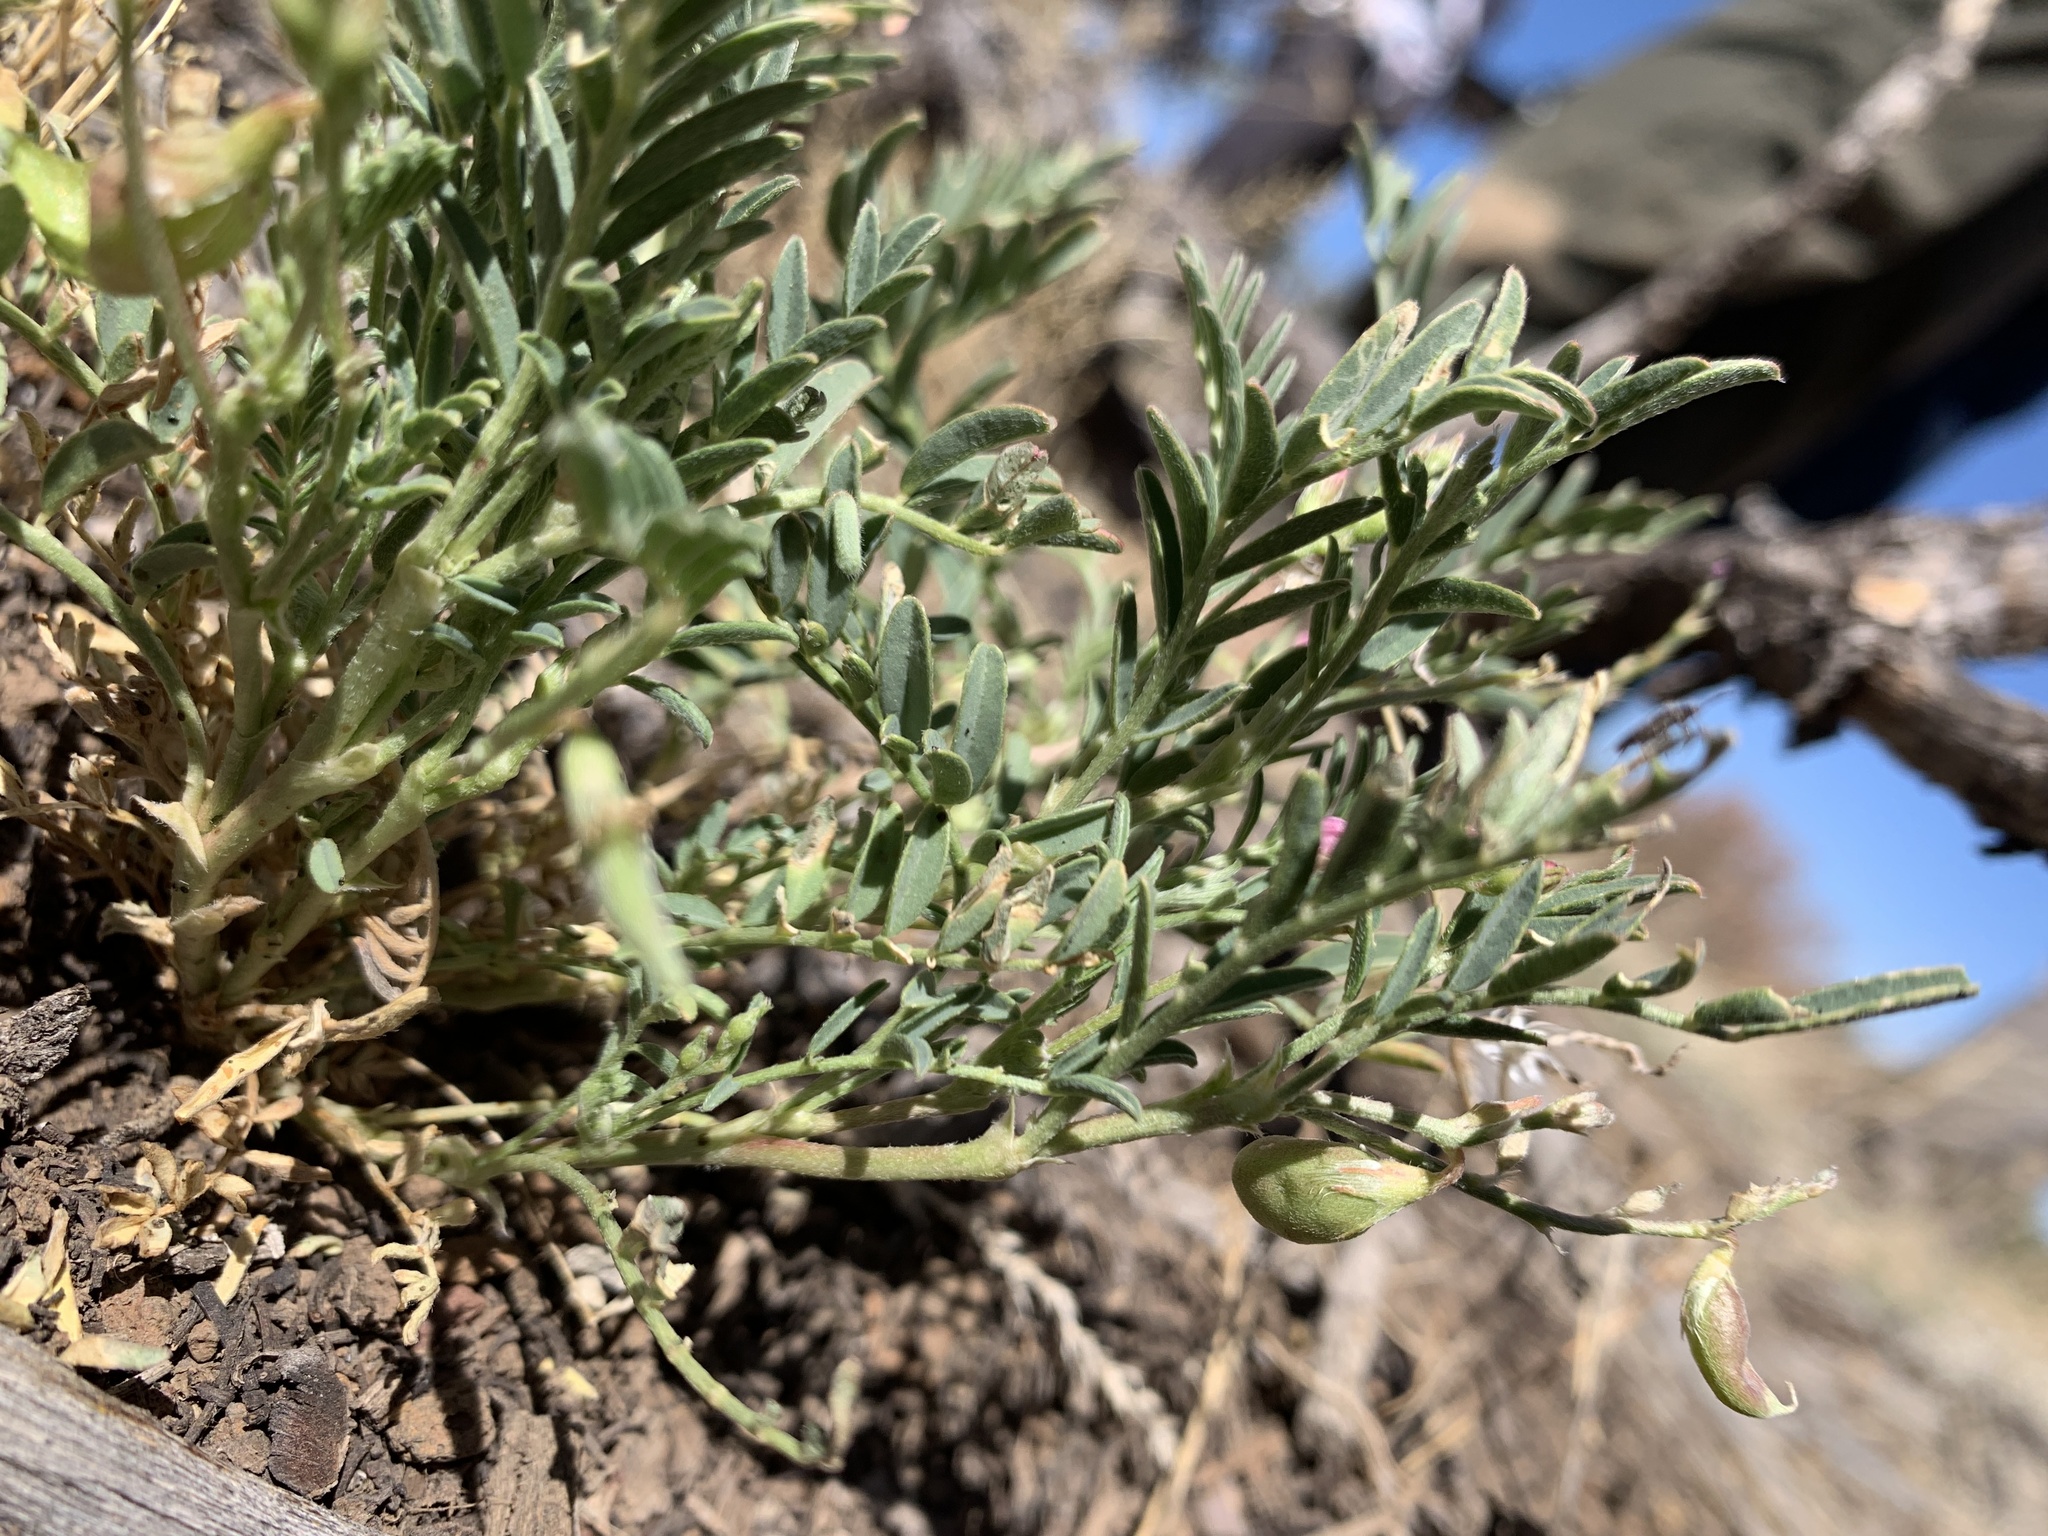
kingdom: Plantae
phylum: Tracheophyta
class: Magnoliopsida
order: Fabales
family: Fabaceae
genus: Astragalus
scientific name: Astragalus wootonii
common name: Wooton's milk-vetch
